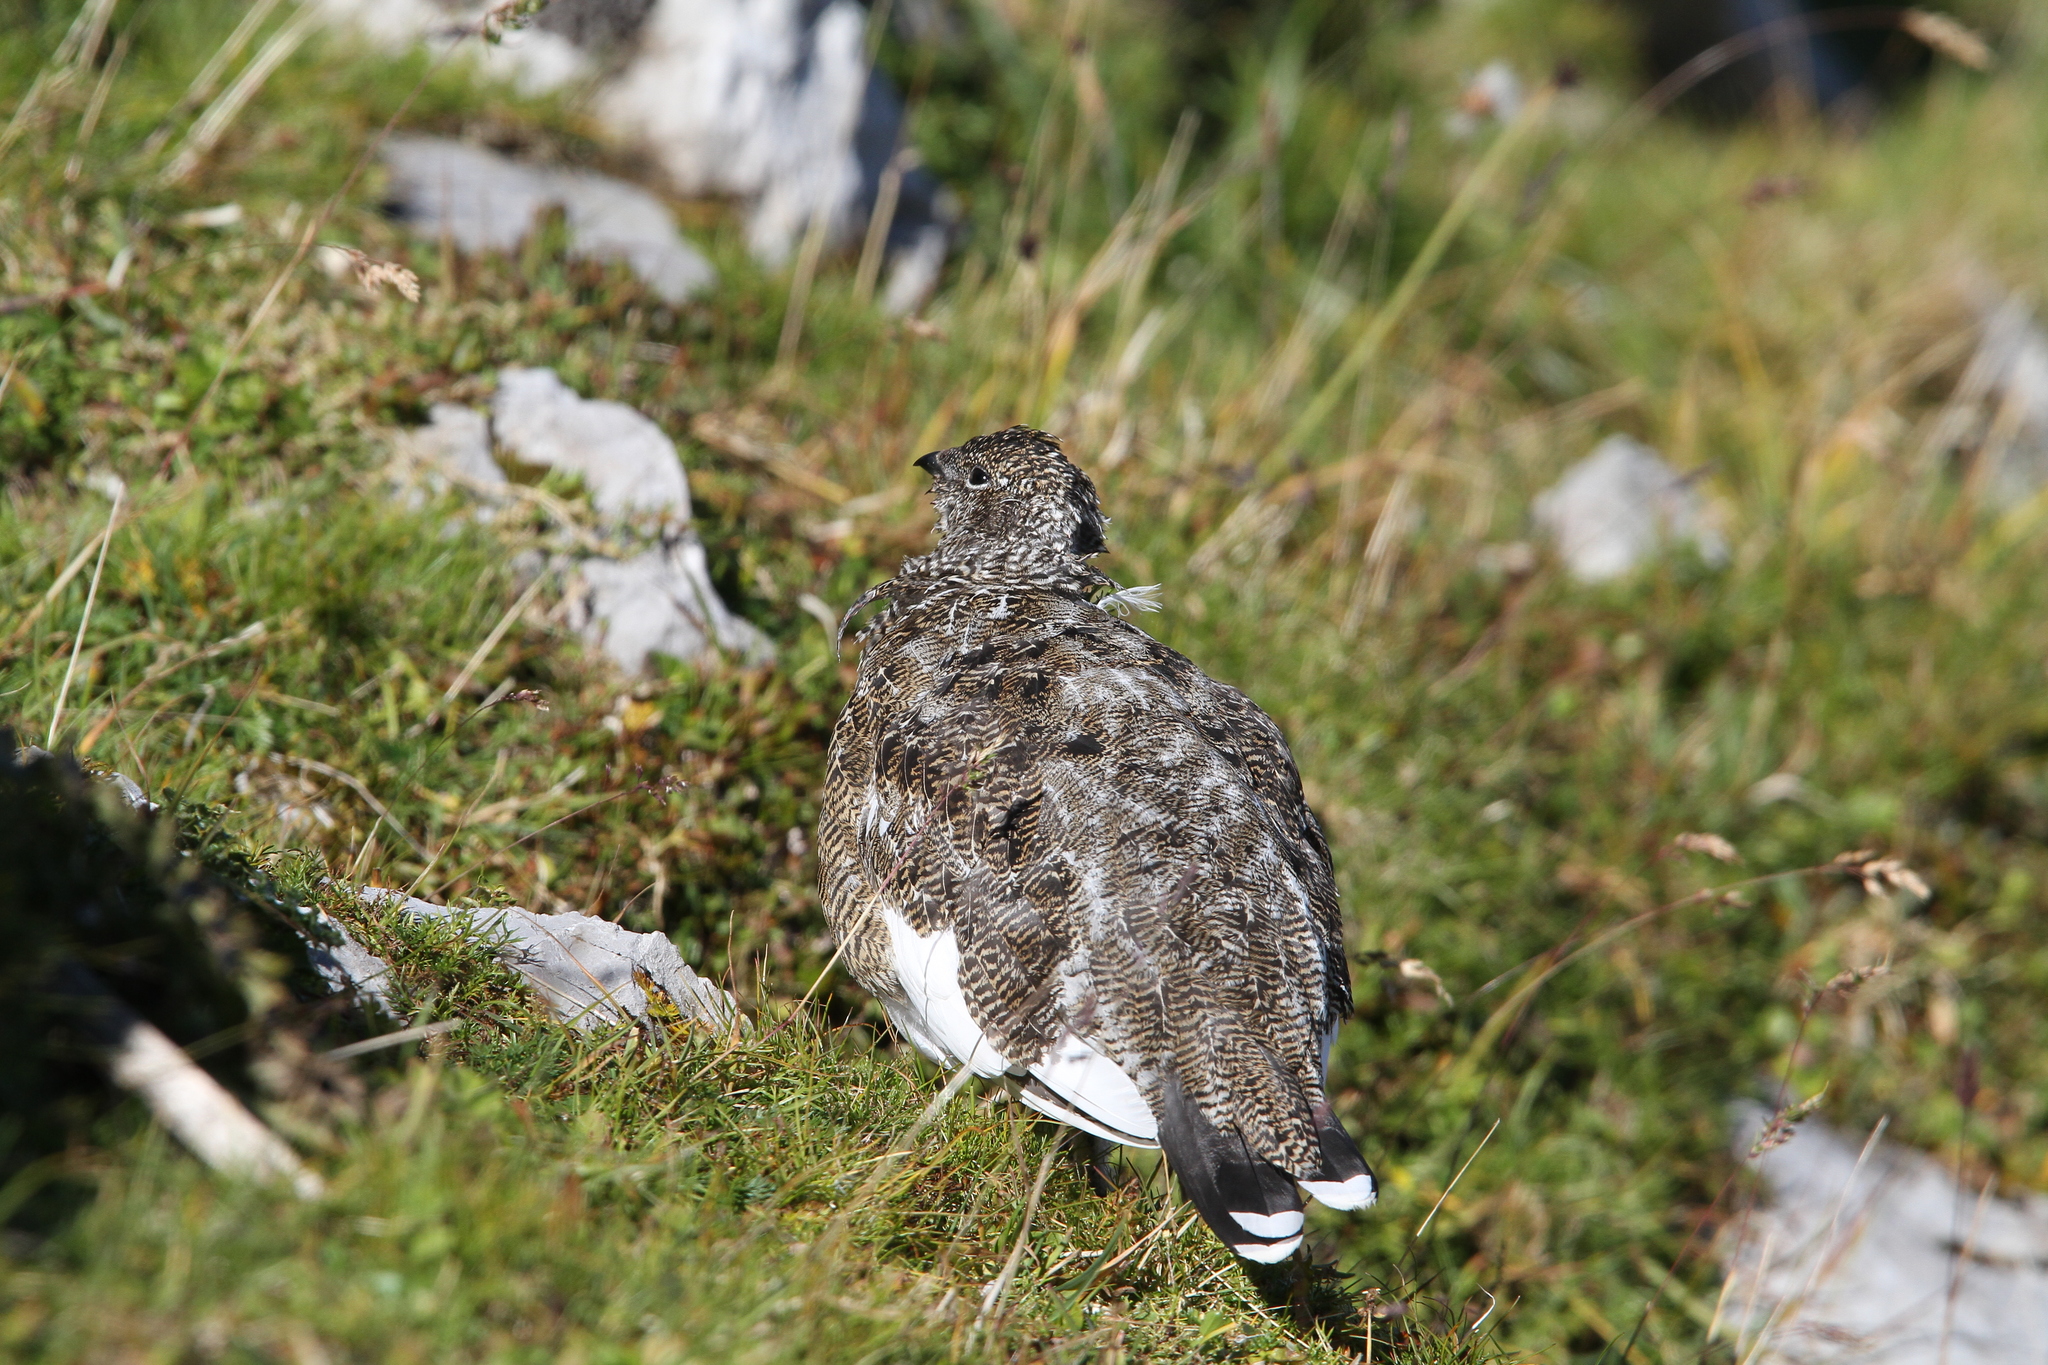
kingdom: Animalia
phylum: Chordata
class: Aves
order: Galliformes
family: Phasianidae
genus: Lagopus
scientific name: Lagopus muta
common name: Rock ptarmigan
